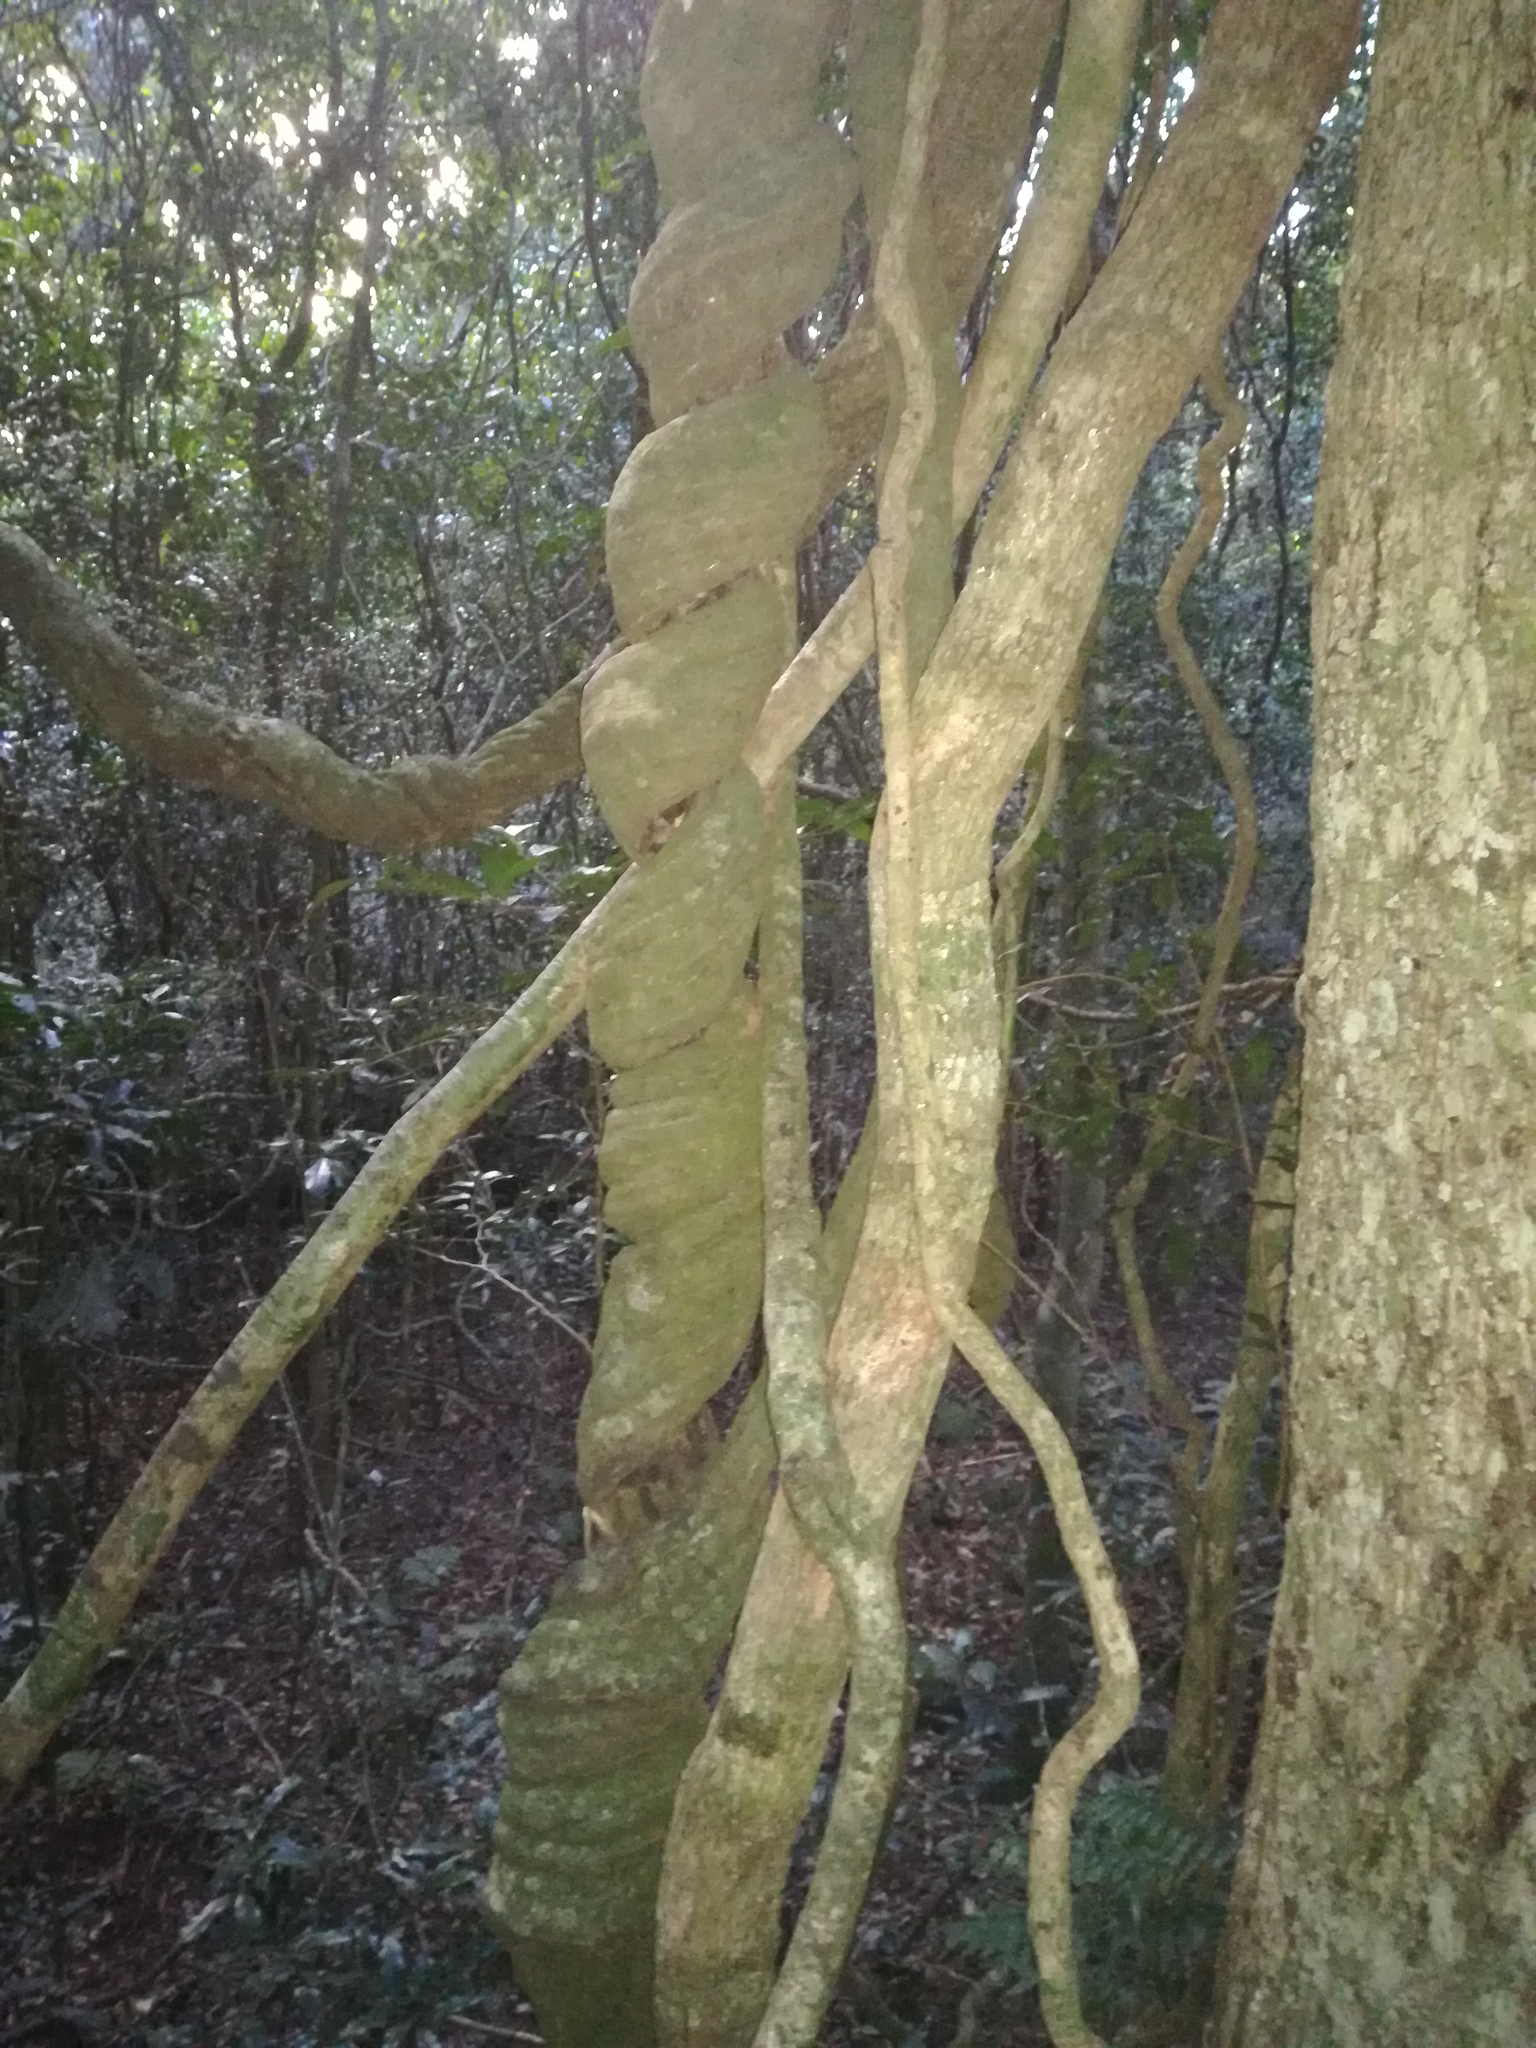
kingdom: Plantae
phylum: Tracheophyta
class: Magnoliopsida
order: Lamiales
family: Bignoniaceae
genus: Pandorea
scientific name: Pandorea pandorana
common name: Wonga-wonga-vine
